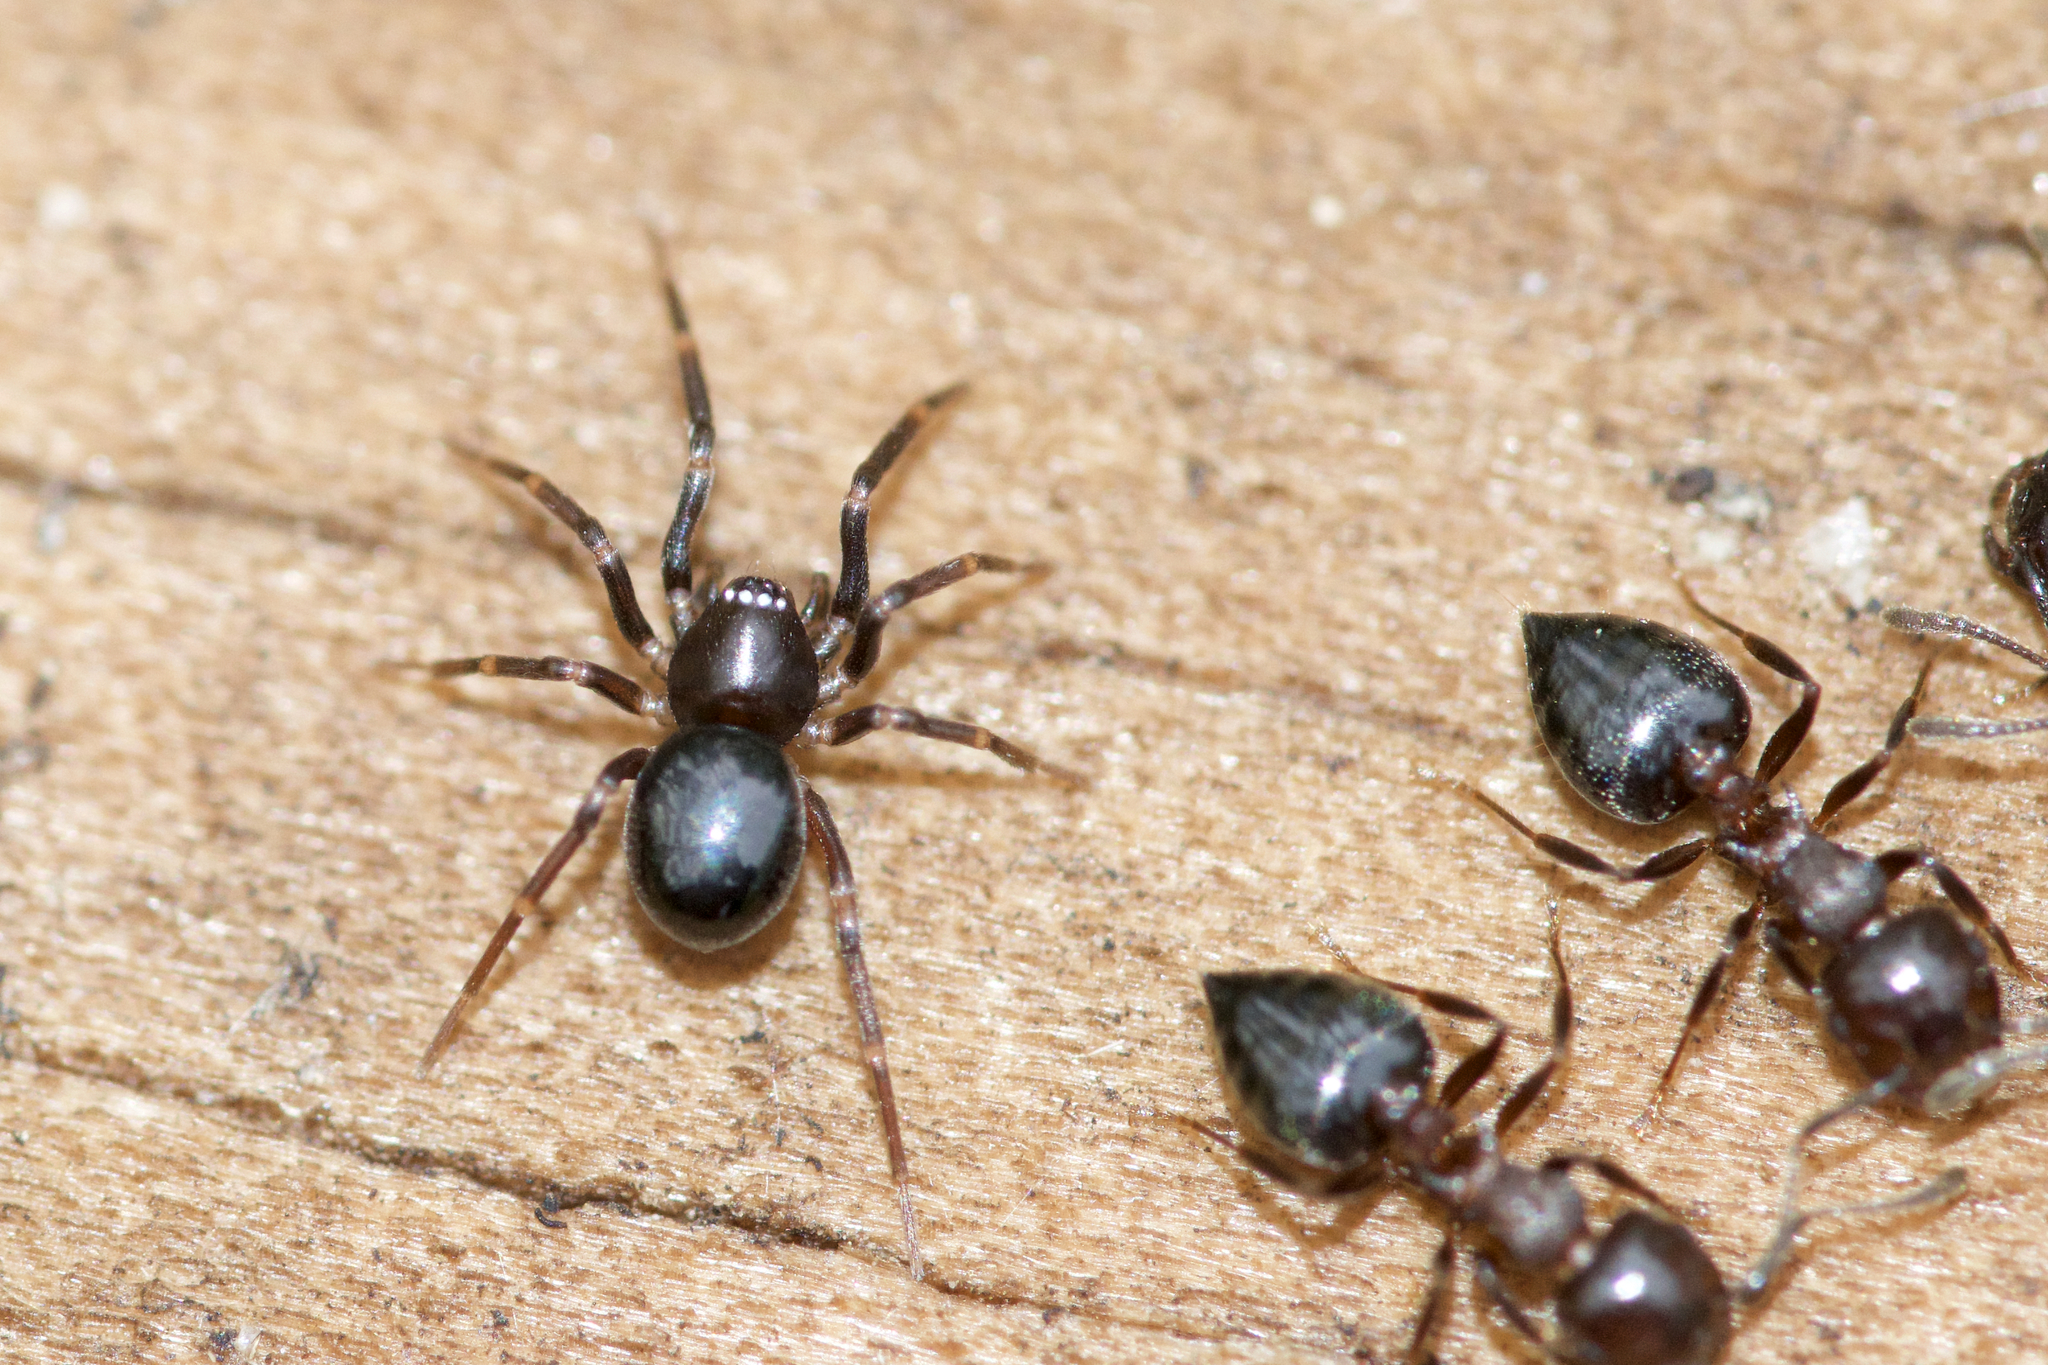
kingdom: Animalia
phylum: Arthropoda
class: Arachnida
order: Araneae
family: Phrurolithidae
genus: Scotinella
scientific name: Scotinella
